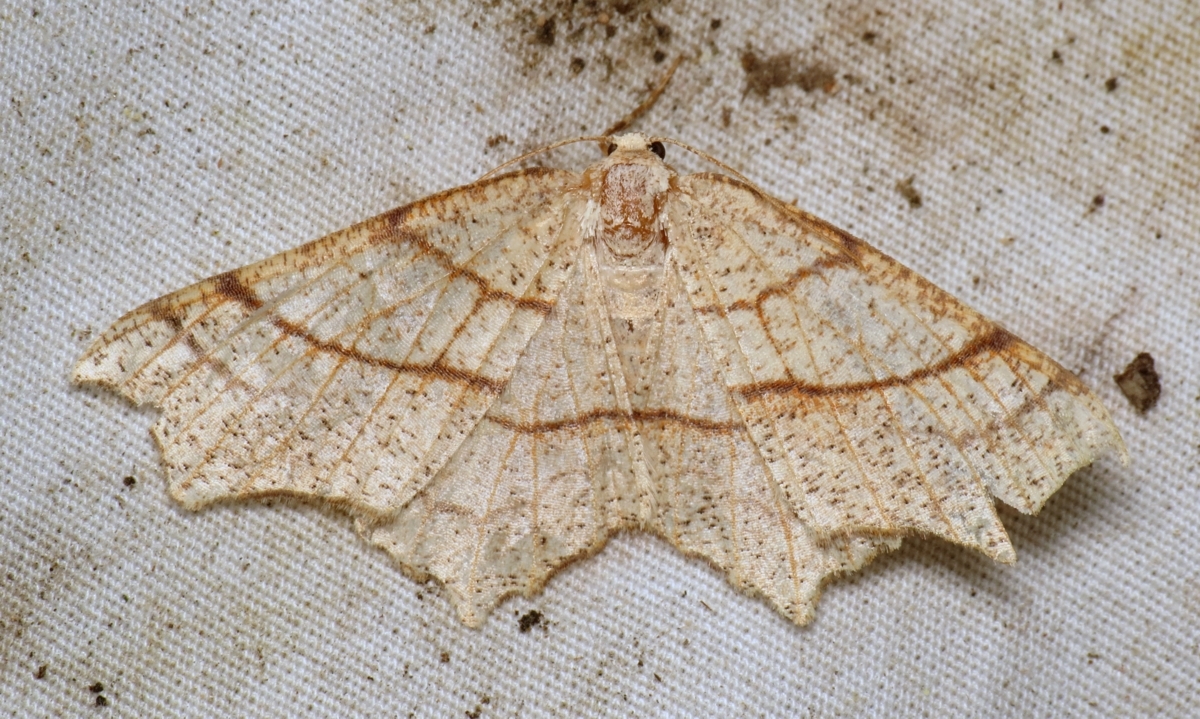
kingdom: Animalia
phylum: Arthropoda
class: Insecta
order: Lepidoptera
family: Geometridae
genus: Besma
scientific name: Besma quercivoraria
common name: Oak besma
